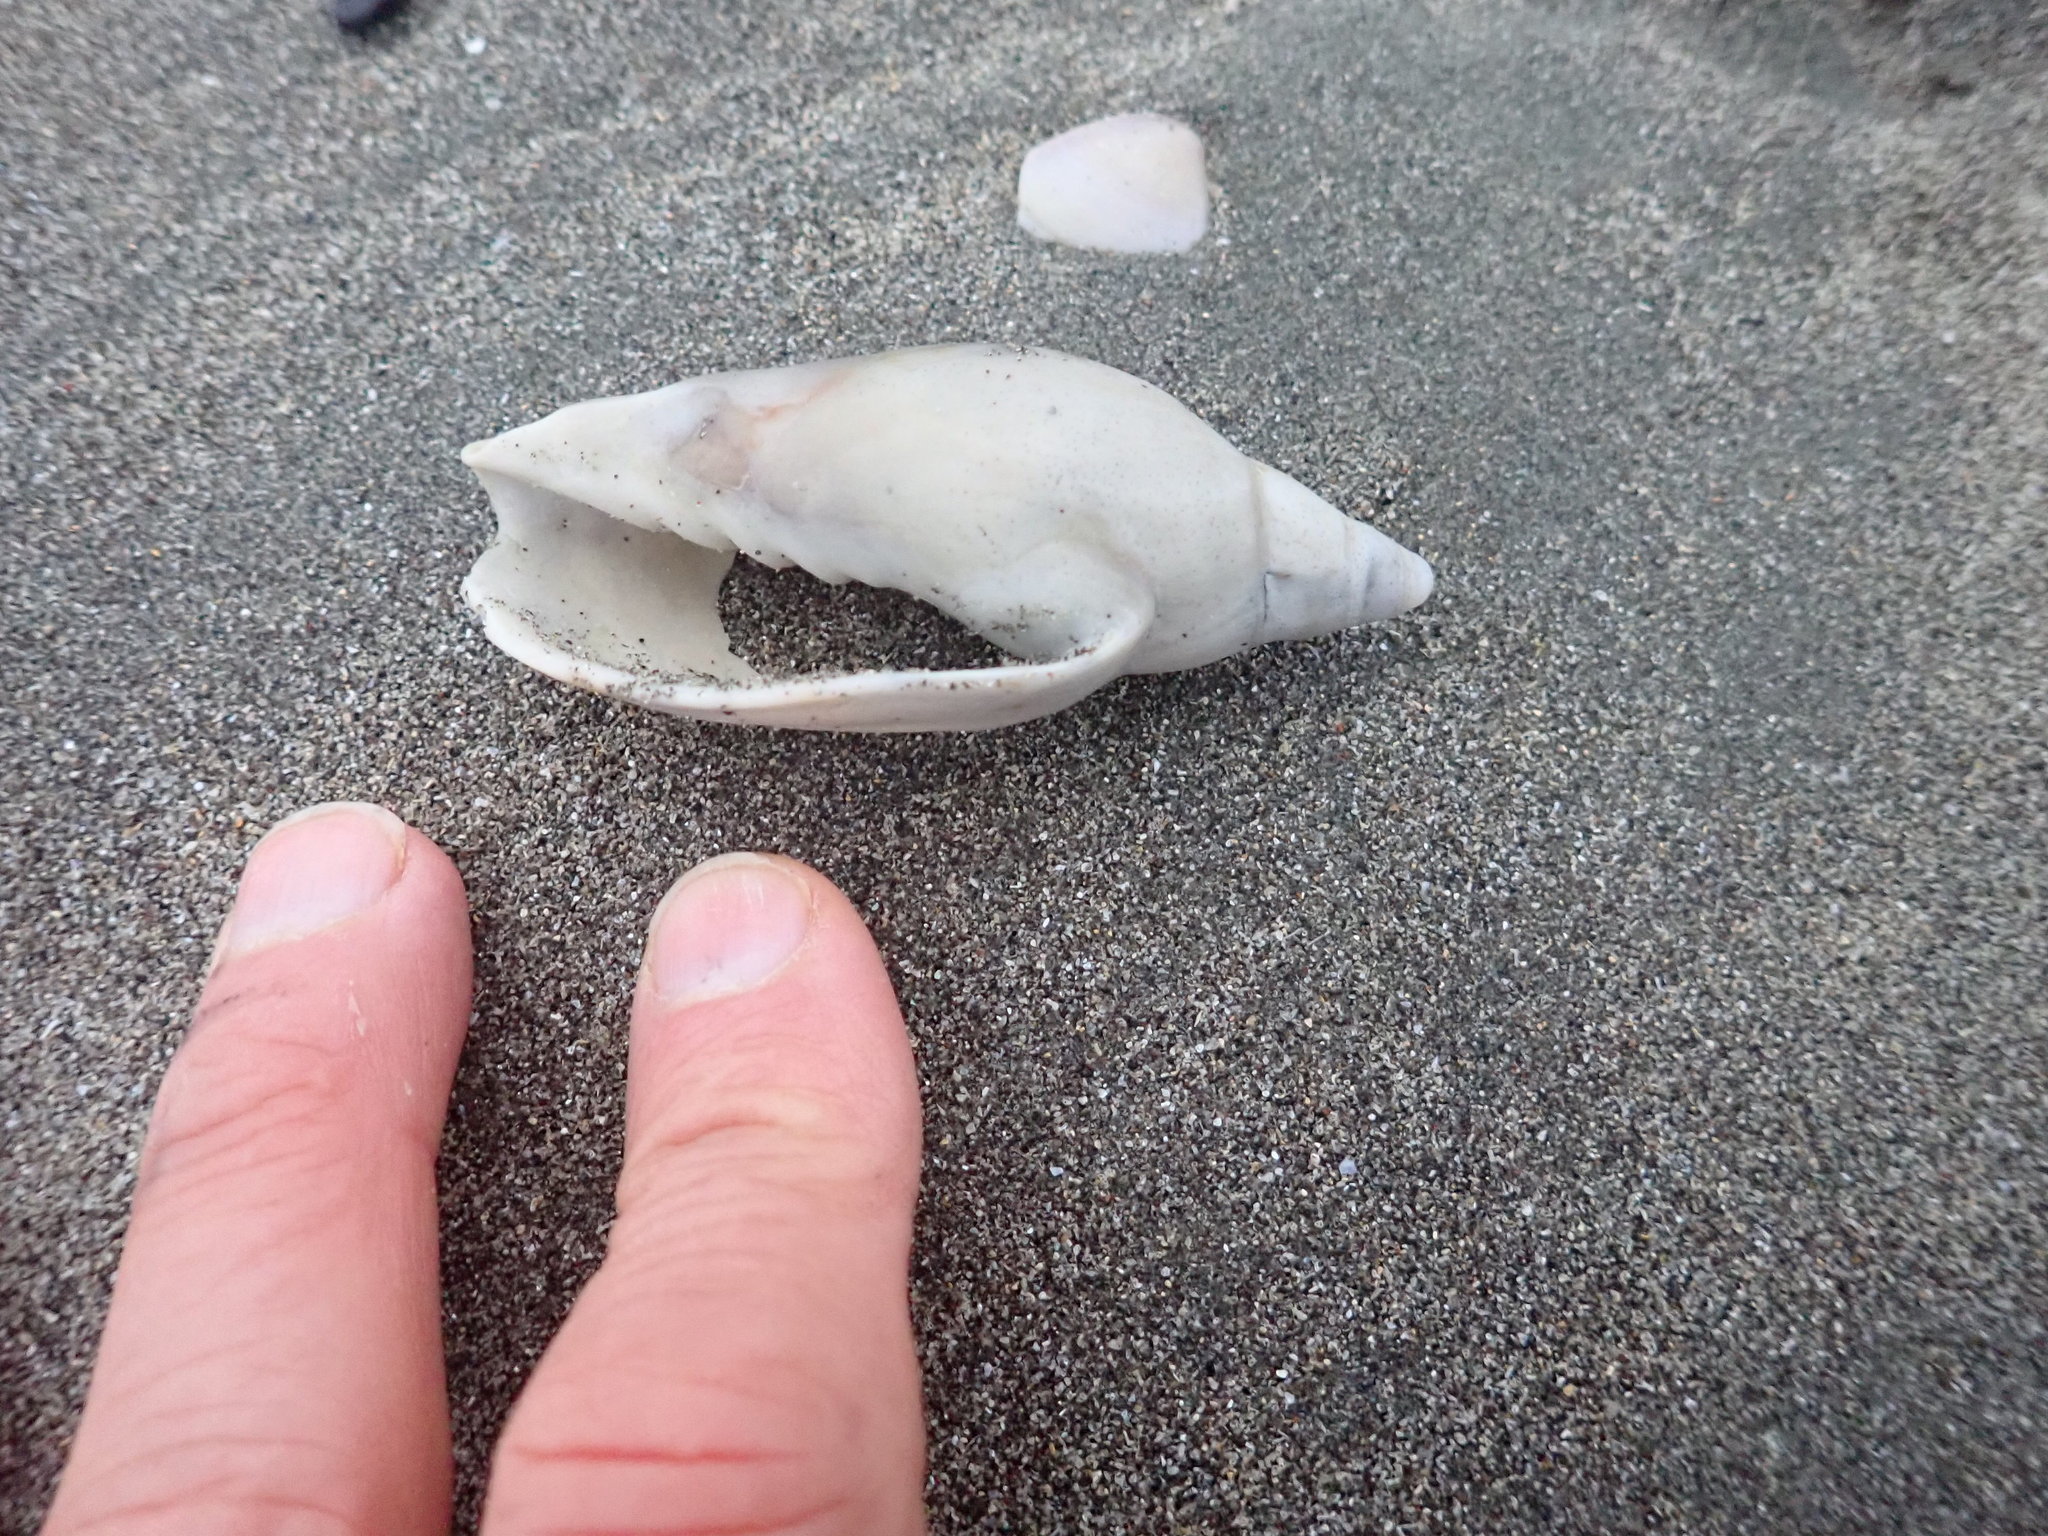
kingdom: Animalia
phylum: Mollusca
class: Gastropoda
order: Neogastropoda
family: Volutidae
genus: Alcithoe
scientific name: Alcithoe fusus
